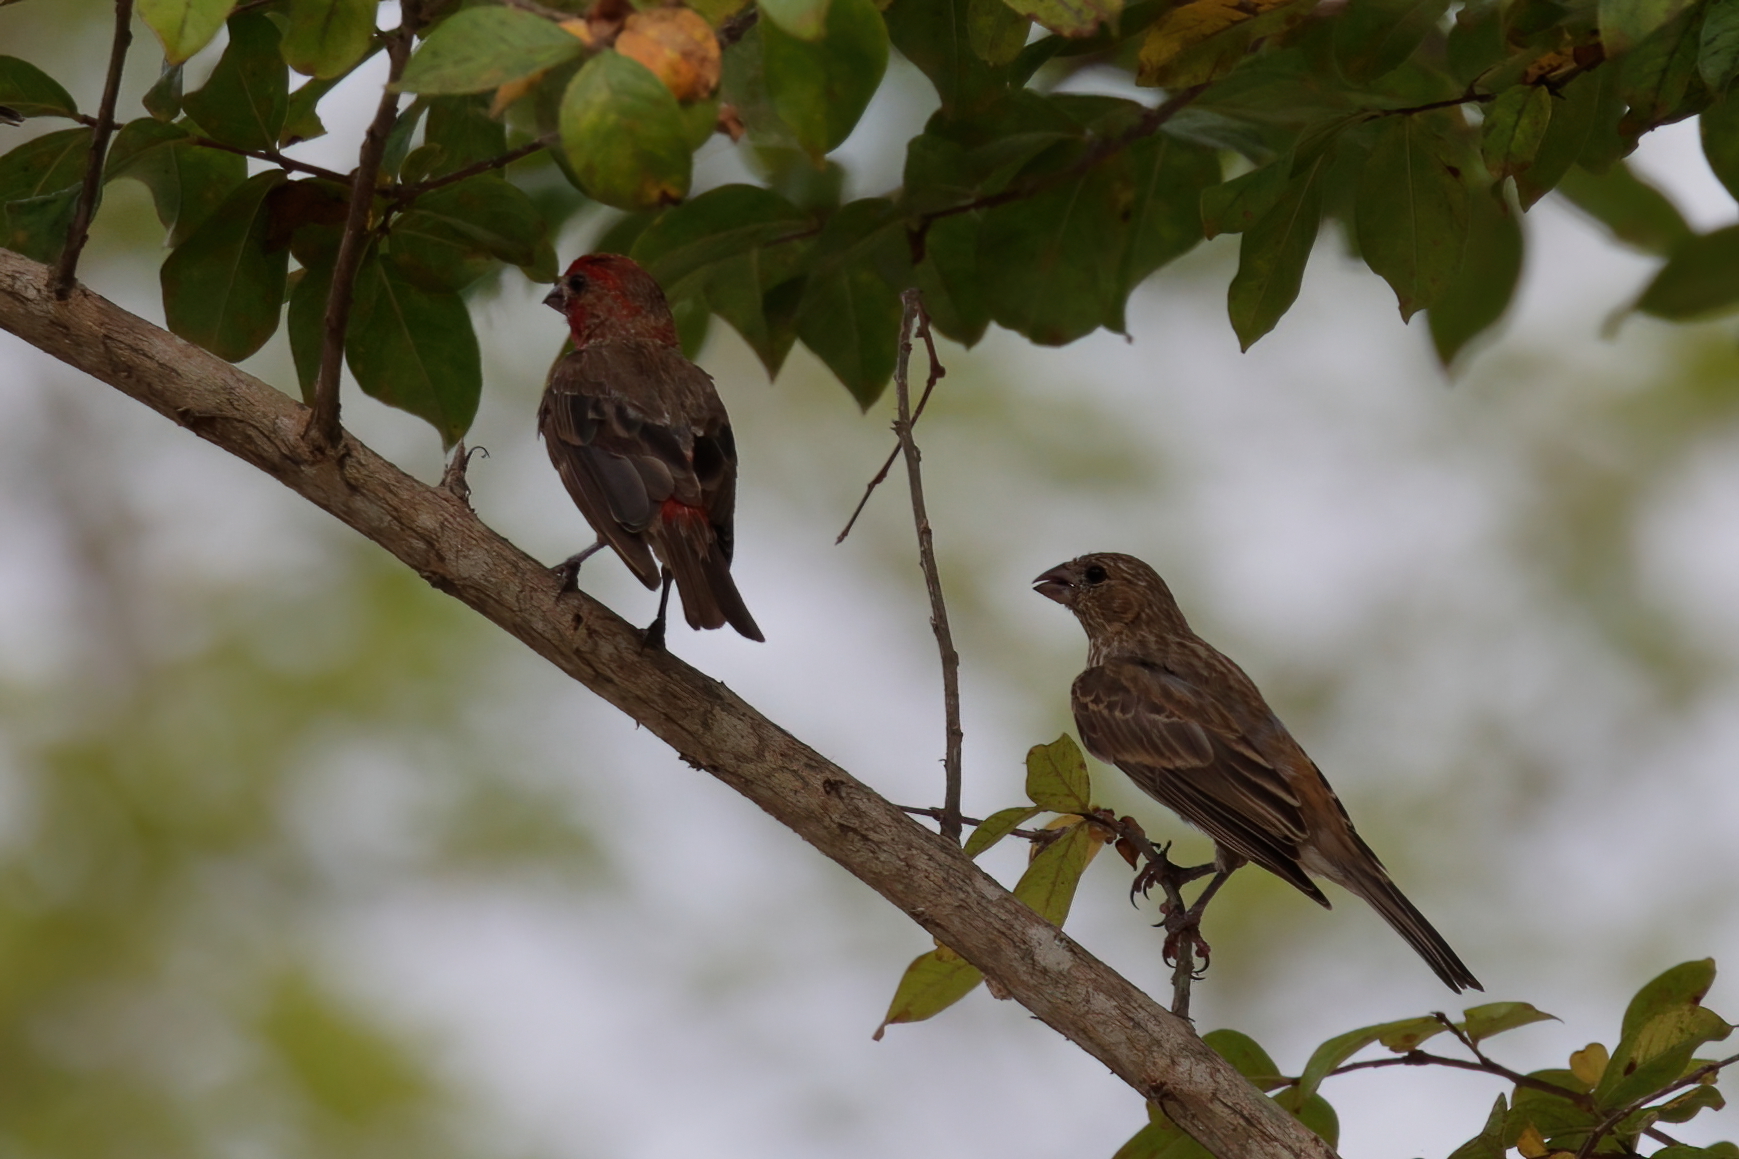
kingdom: Animalia
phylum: Chordata
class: Aves
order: Passeriformes
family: Fringillidae
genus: Haemorhous
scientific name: Haemorhous mexicanus
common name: House finch
